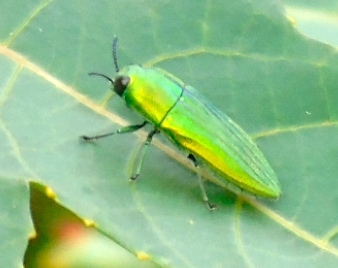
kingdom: Animalia
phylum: Arthropoda
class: Insecta
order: Coleoptera
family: Buprestidae
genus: Agaeocera
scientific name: Agaeocera scintillans
